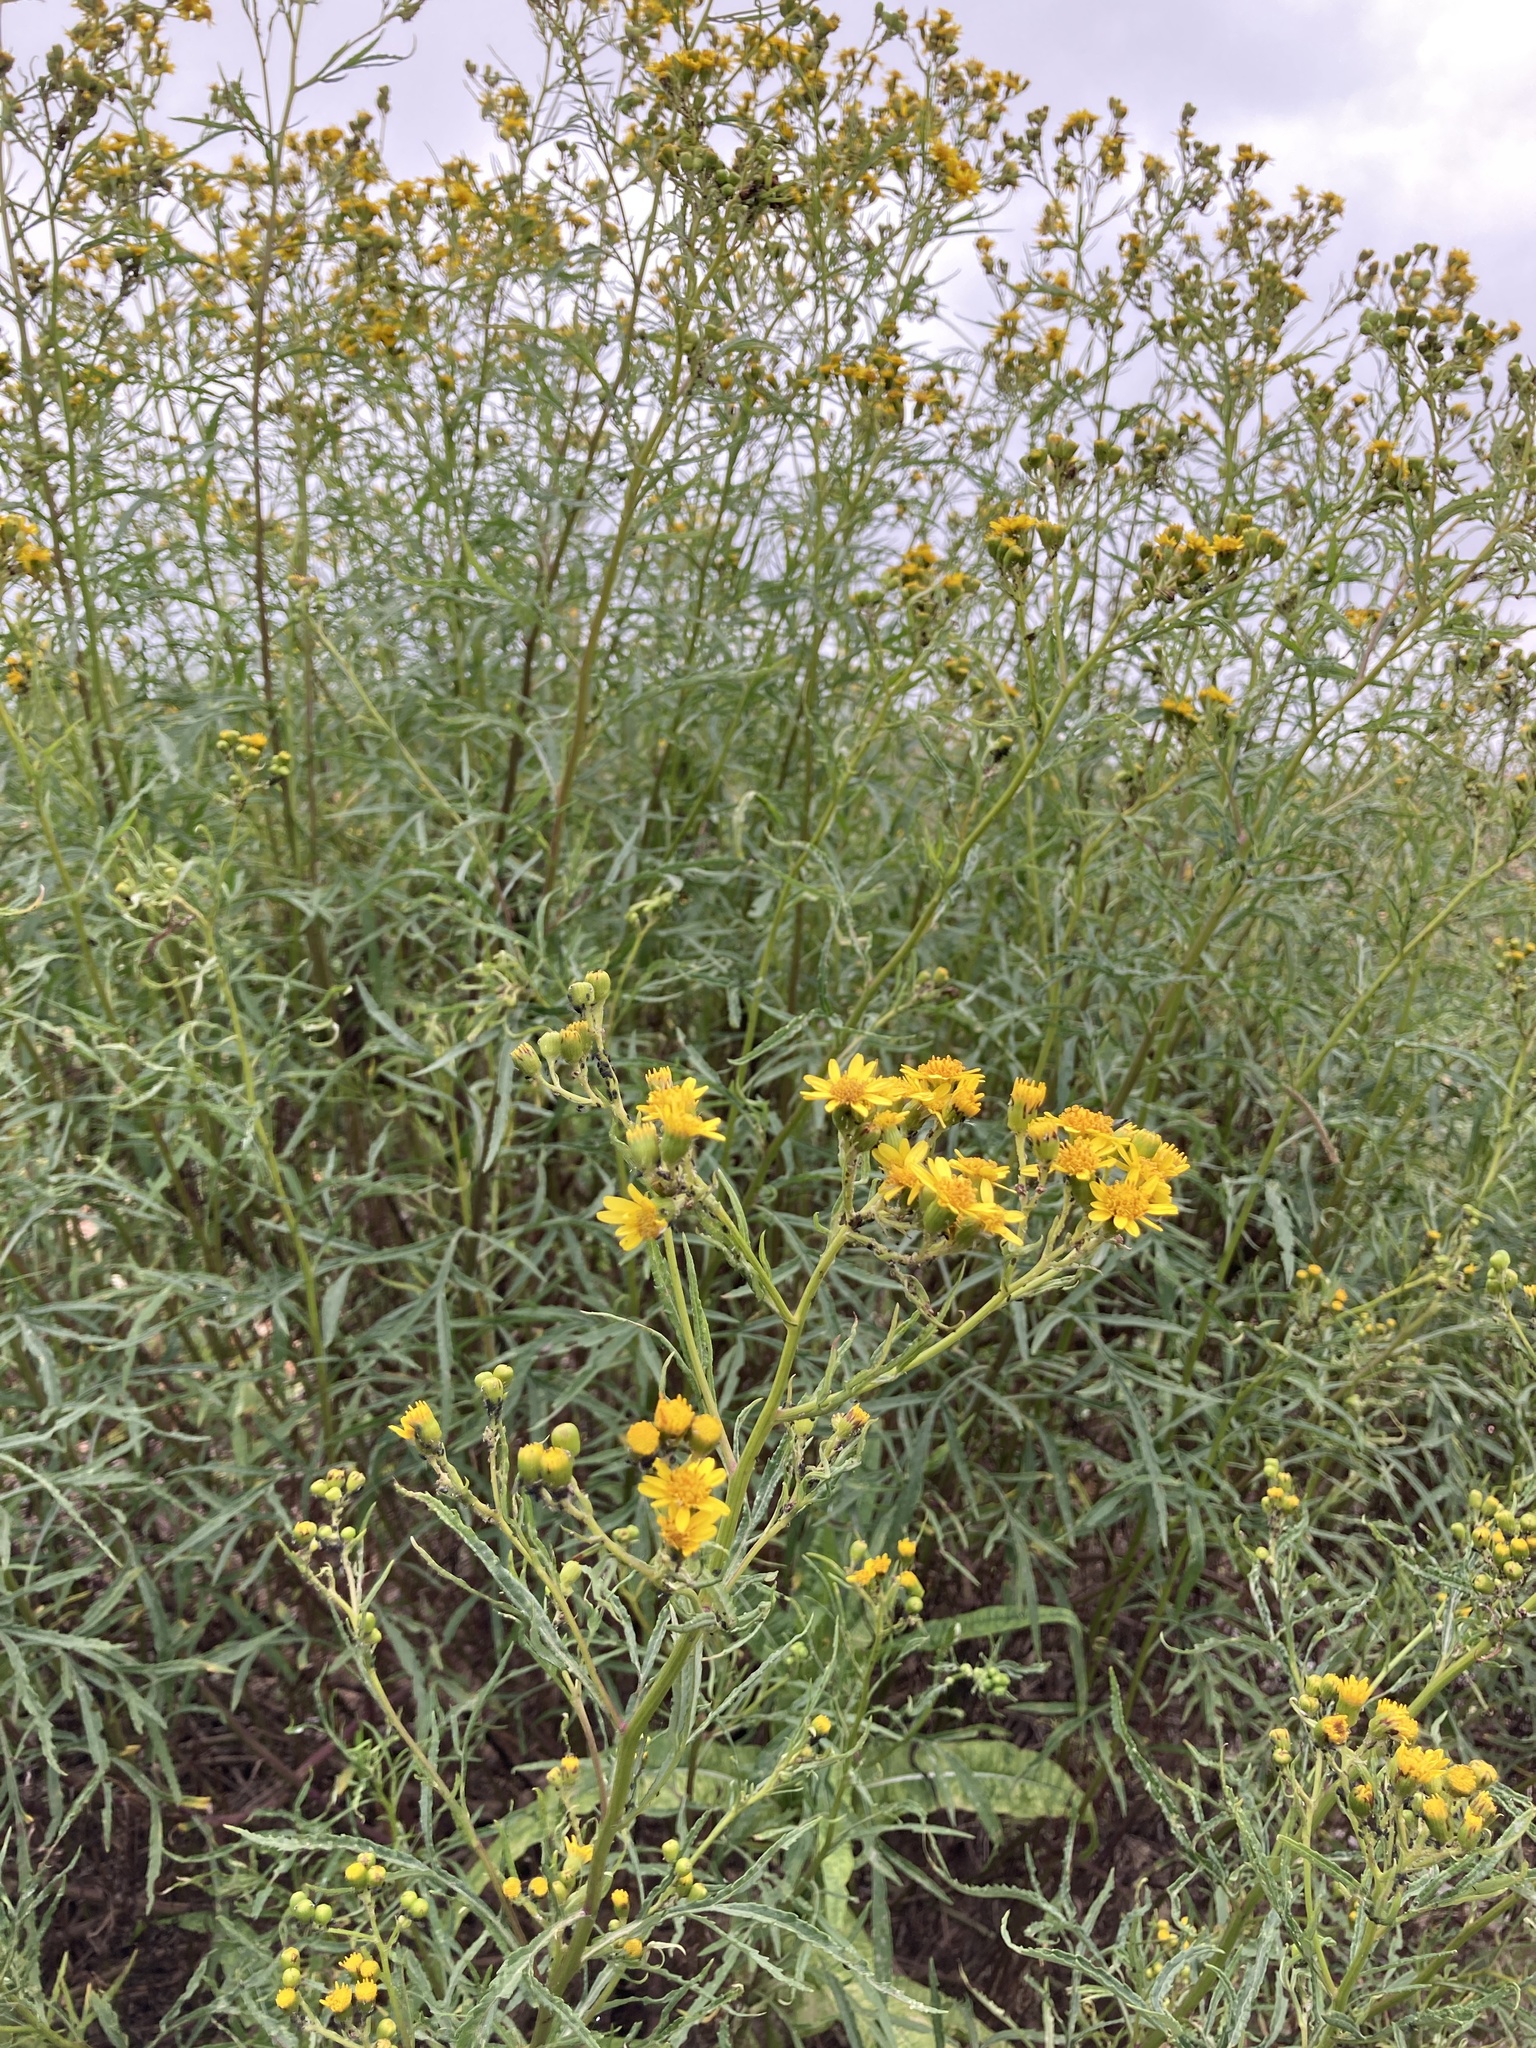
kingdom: Plantae
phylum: Tracheophyta
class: Magnoliopsida
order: Asterales
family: Asteraceae
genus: Senecio
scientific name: Senecio brasiliensis
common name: Hemp-leaf ragwort
